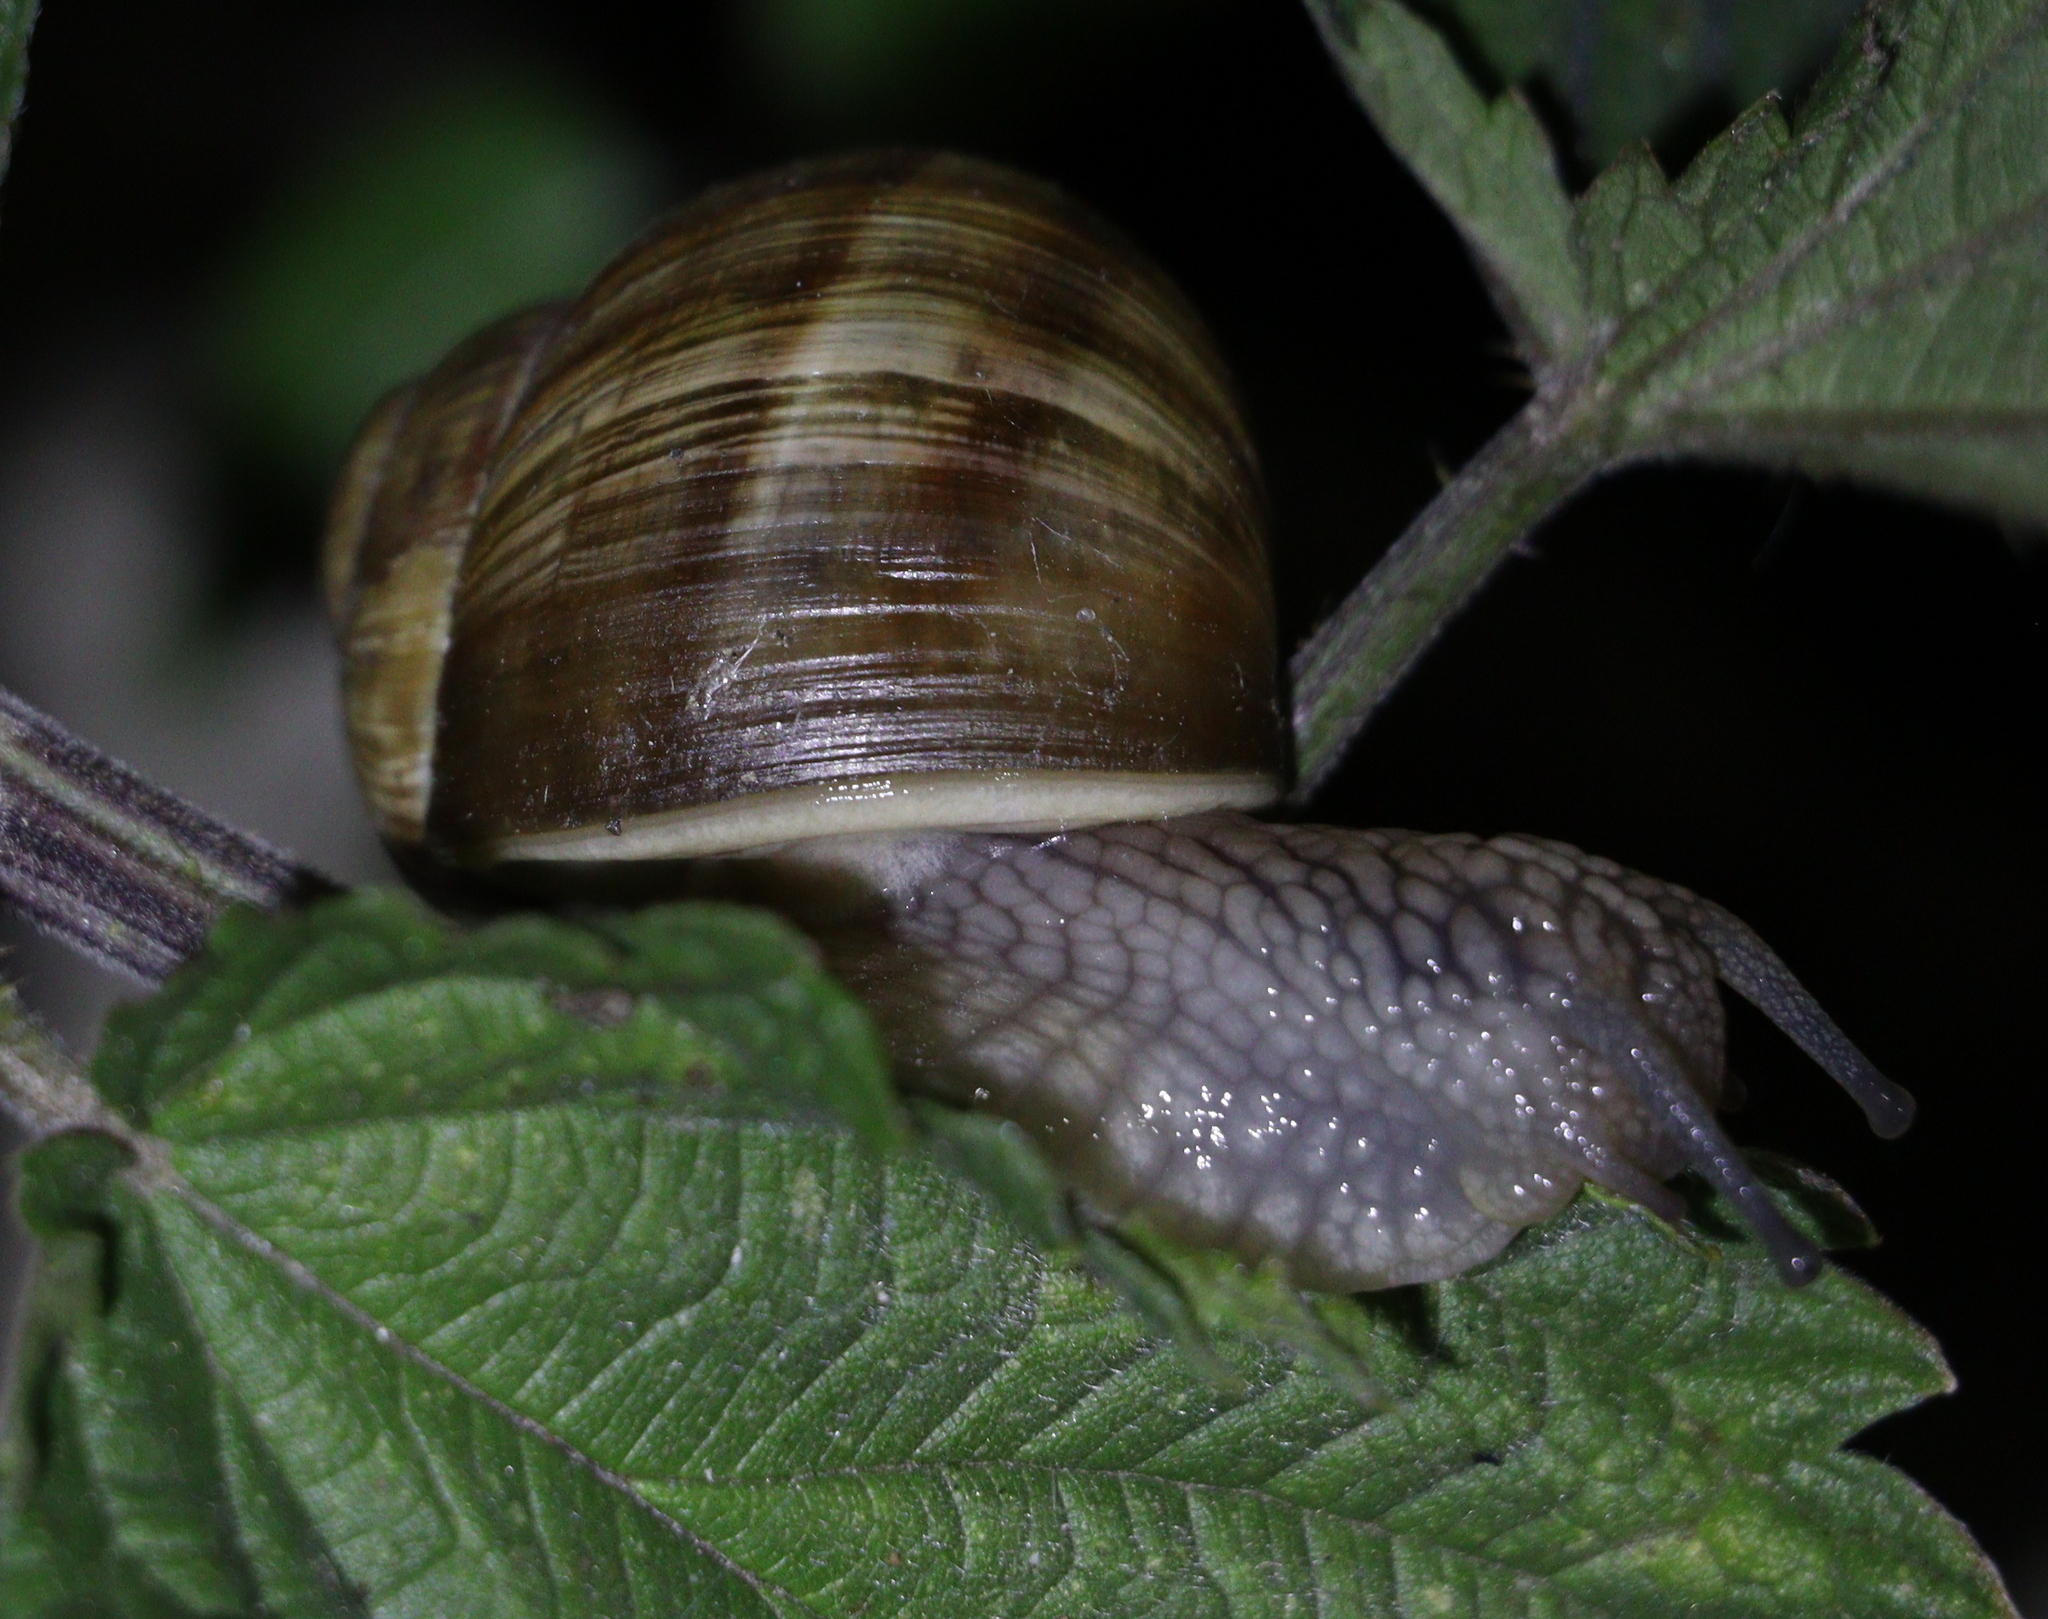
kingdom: Animalia
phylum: Mollusca
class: Gastropoda
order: Stylommatophora
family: Helicidae
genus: Helix
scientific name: Helix pomatia
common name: Roman snail
